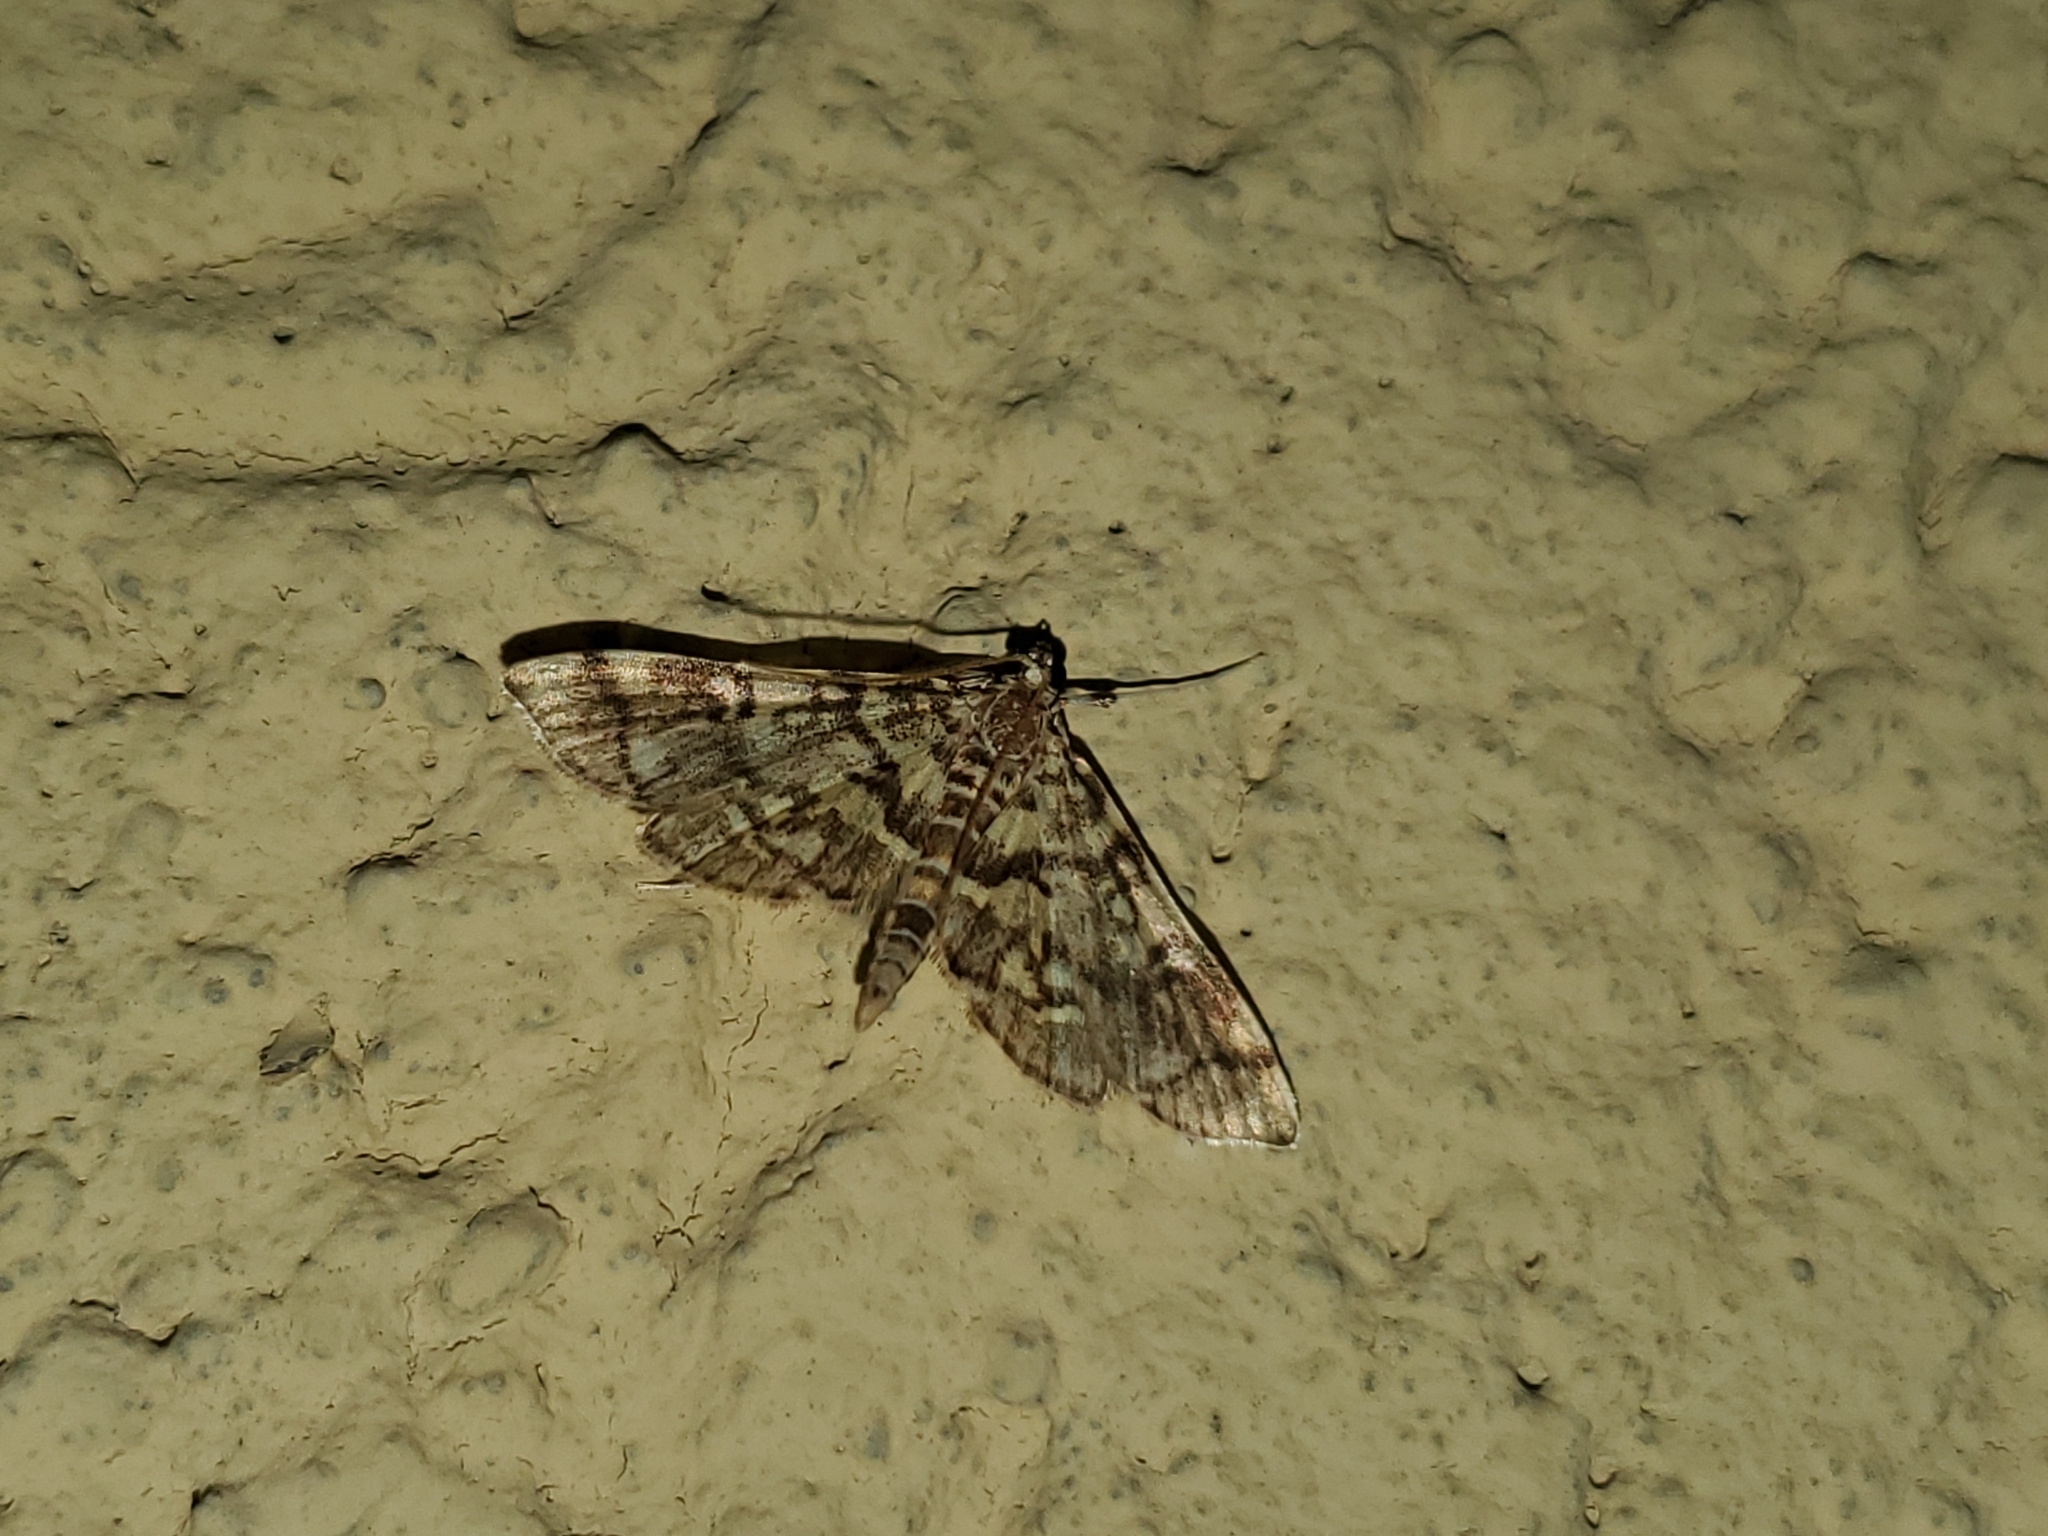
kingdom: Animalia
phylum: Arthropoda
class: Insecta
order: Lepidoptera
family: Crambidae
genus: Apogeshna
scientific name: Apogeshna stenialis
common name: Checkered apogeshna moth
